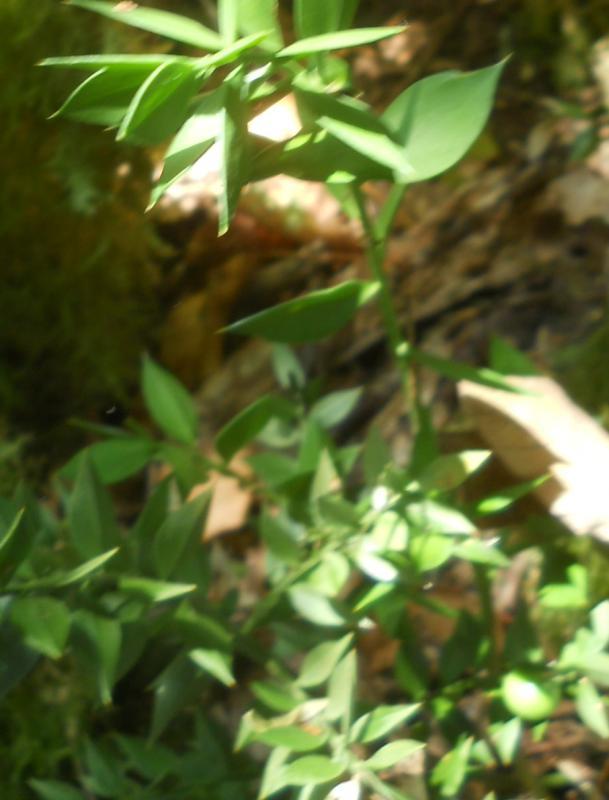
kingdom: Plantae
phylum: Tracheophyta
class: Liliopsida
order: Asparagales
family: Asparagaceae
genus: Ruscus
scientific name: Ruscus aculeatus
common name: Butcher's-broom
